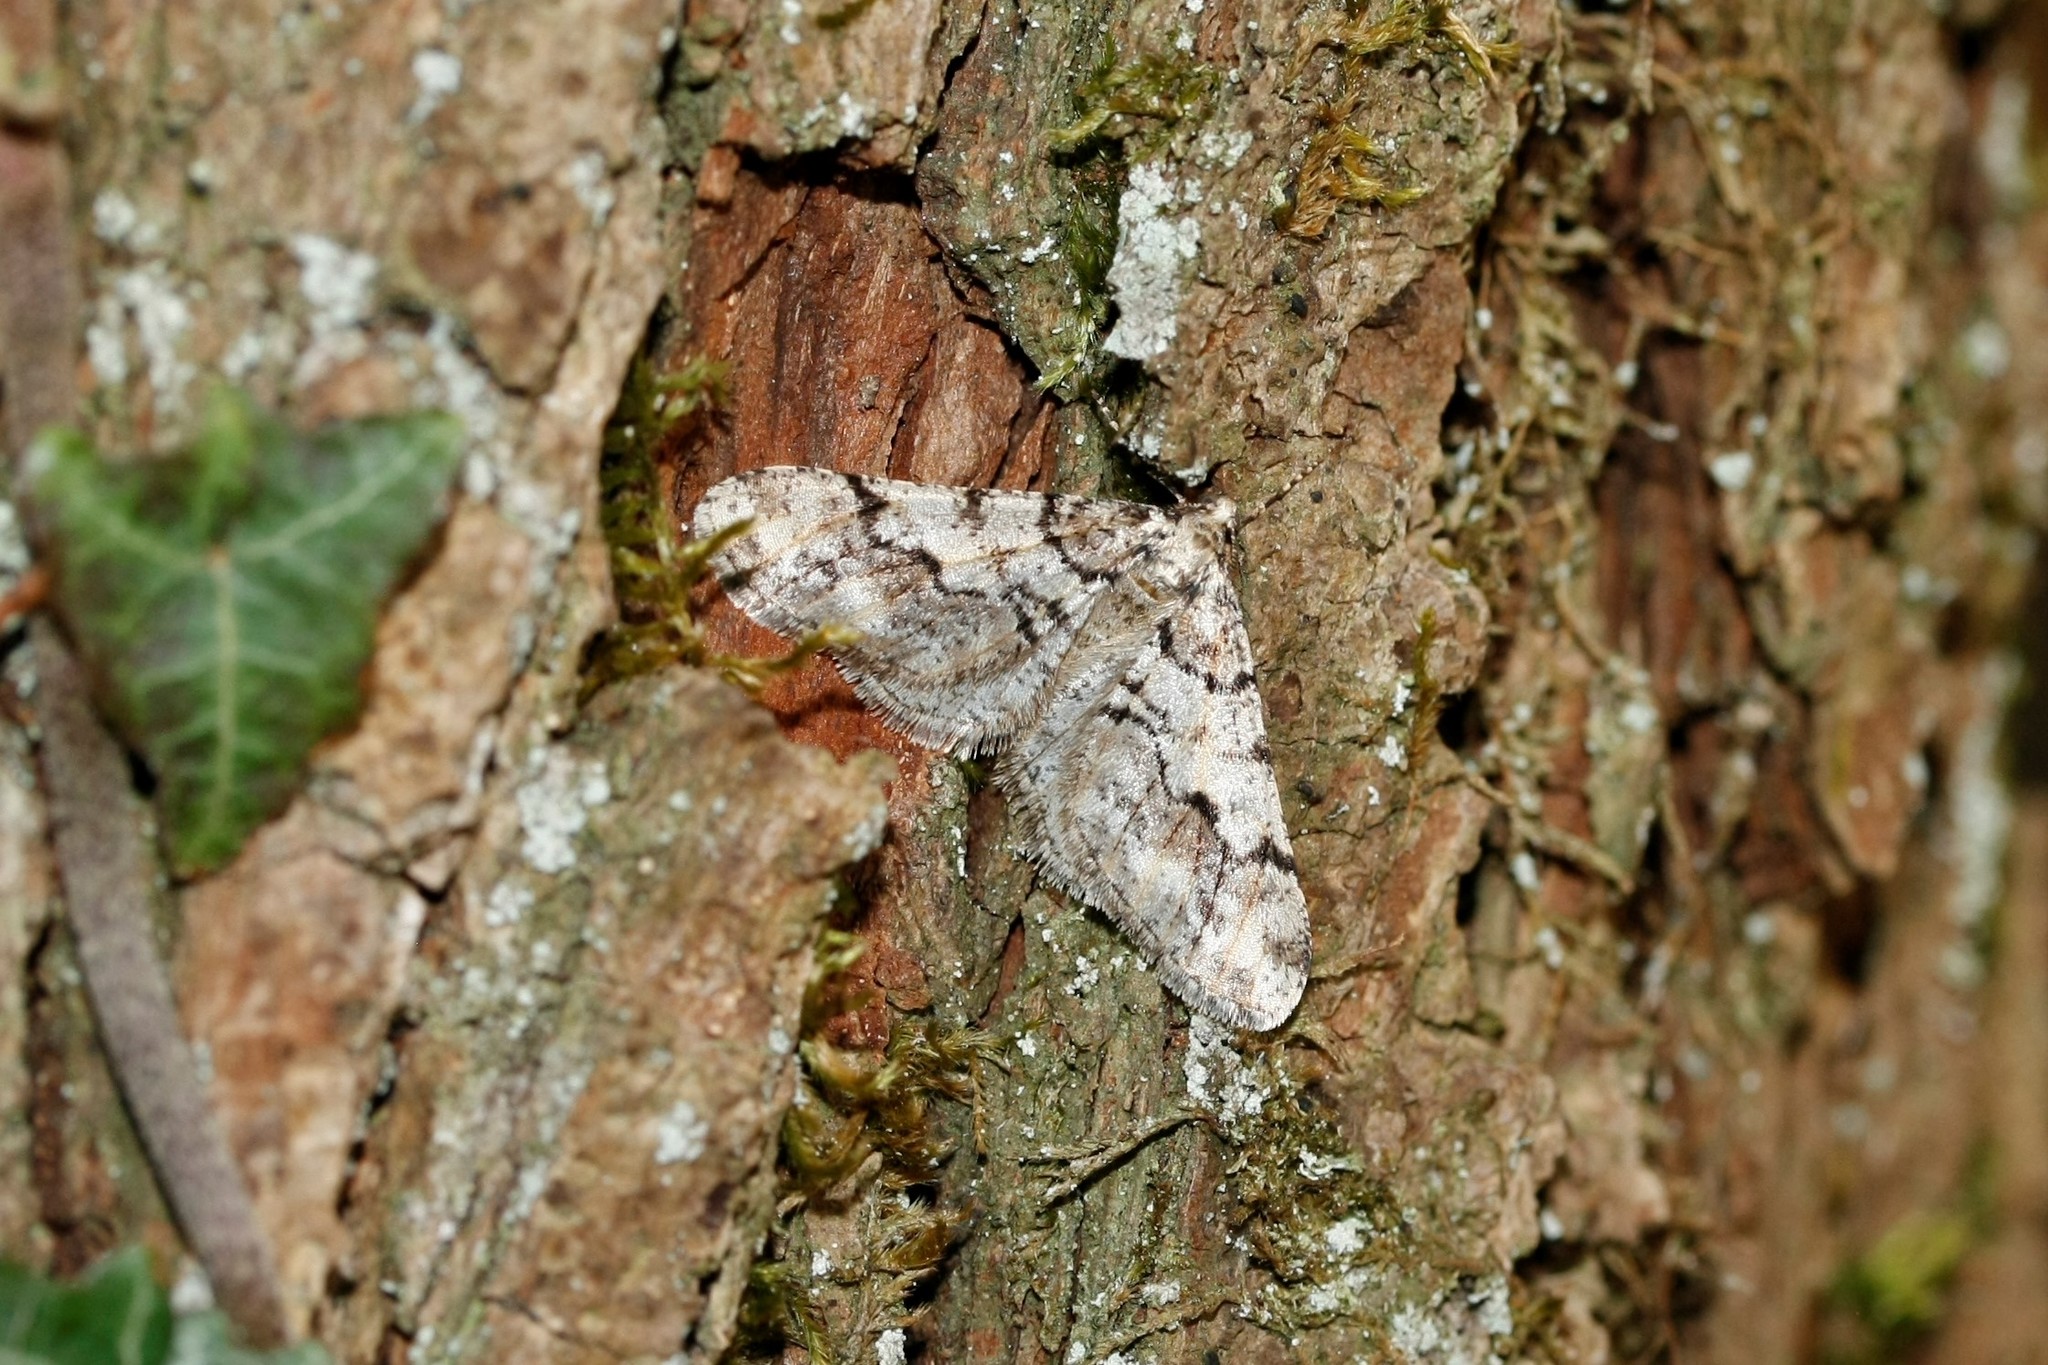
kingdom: Animalia
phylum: Arthropoda
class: Insecta
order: Lepidoptera
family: Geometridae
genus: Agriopis
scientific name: Agriopis leucophaearia
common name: Spring usher
